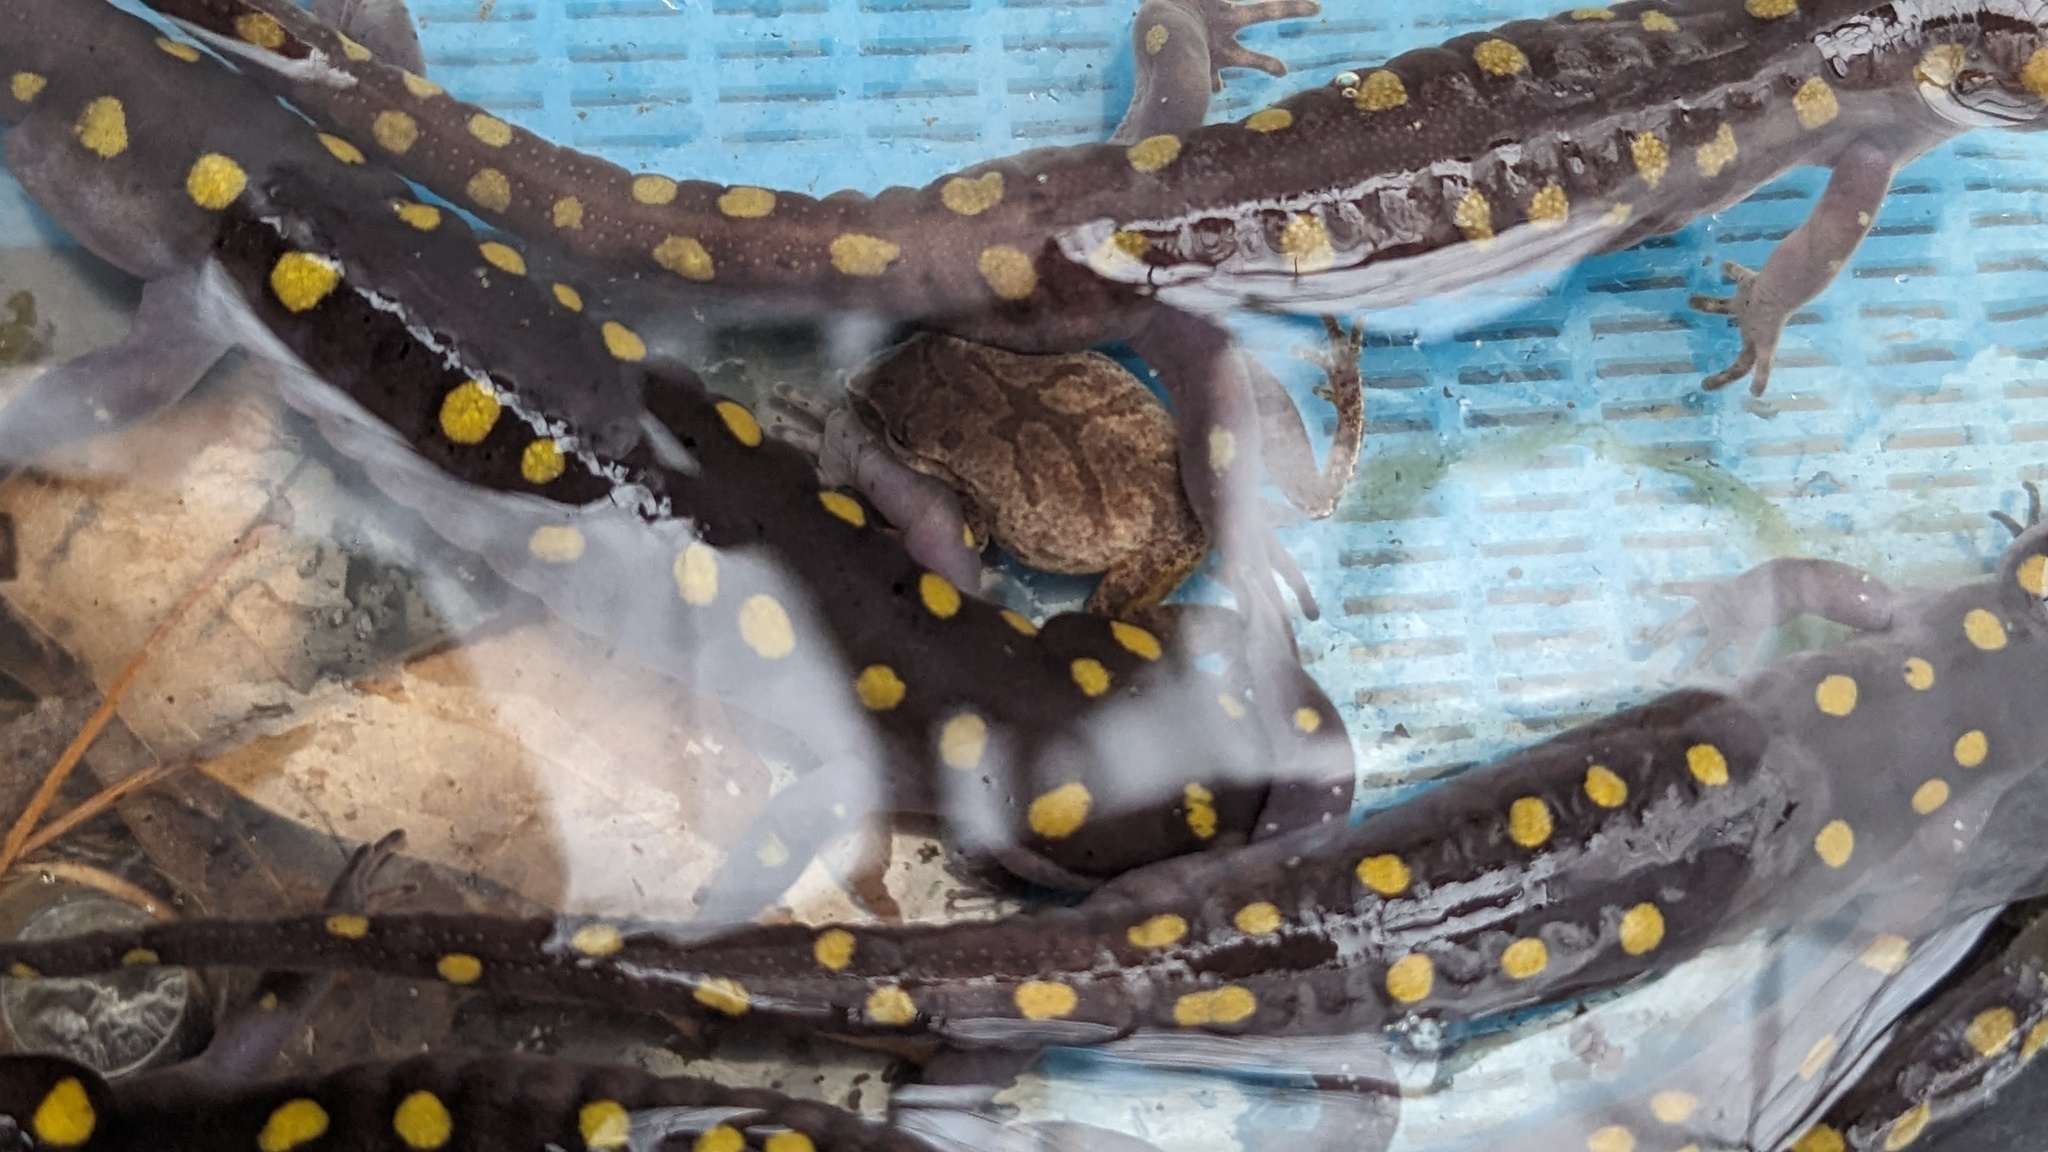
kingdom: Animalia
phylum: Chordata
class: Amphibia
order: Anura
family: Hylidae
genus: Pseudacris
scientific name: Pseudacris crucifer
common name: Spring peeper
